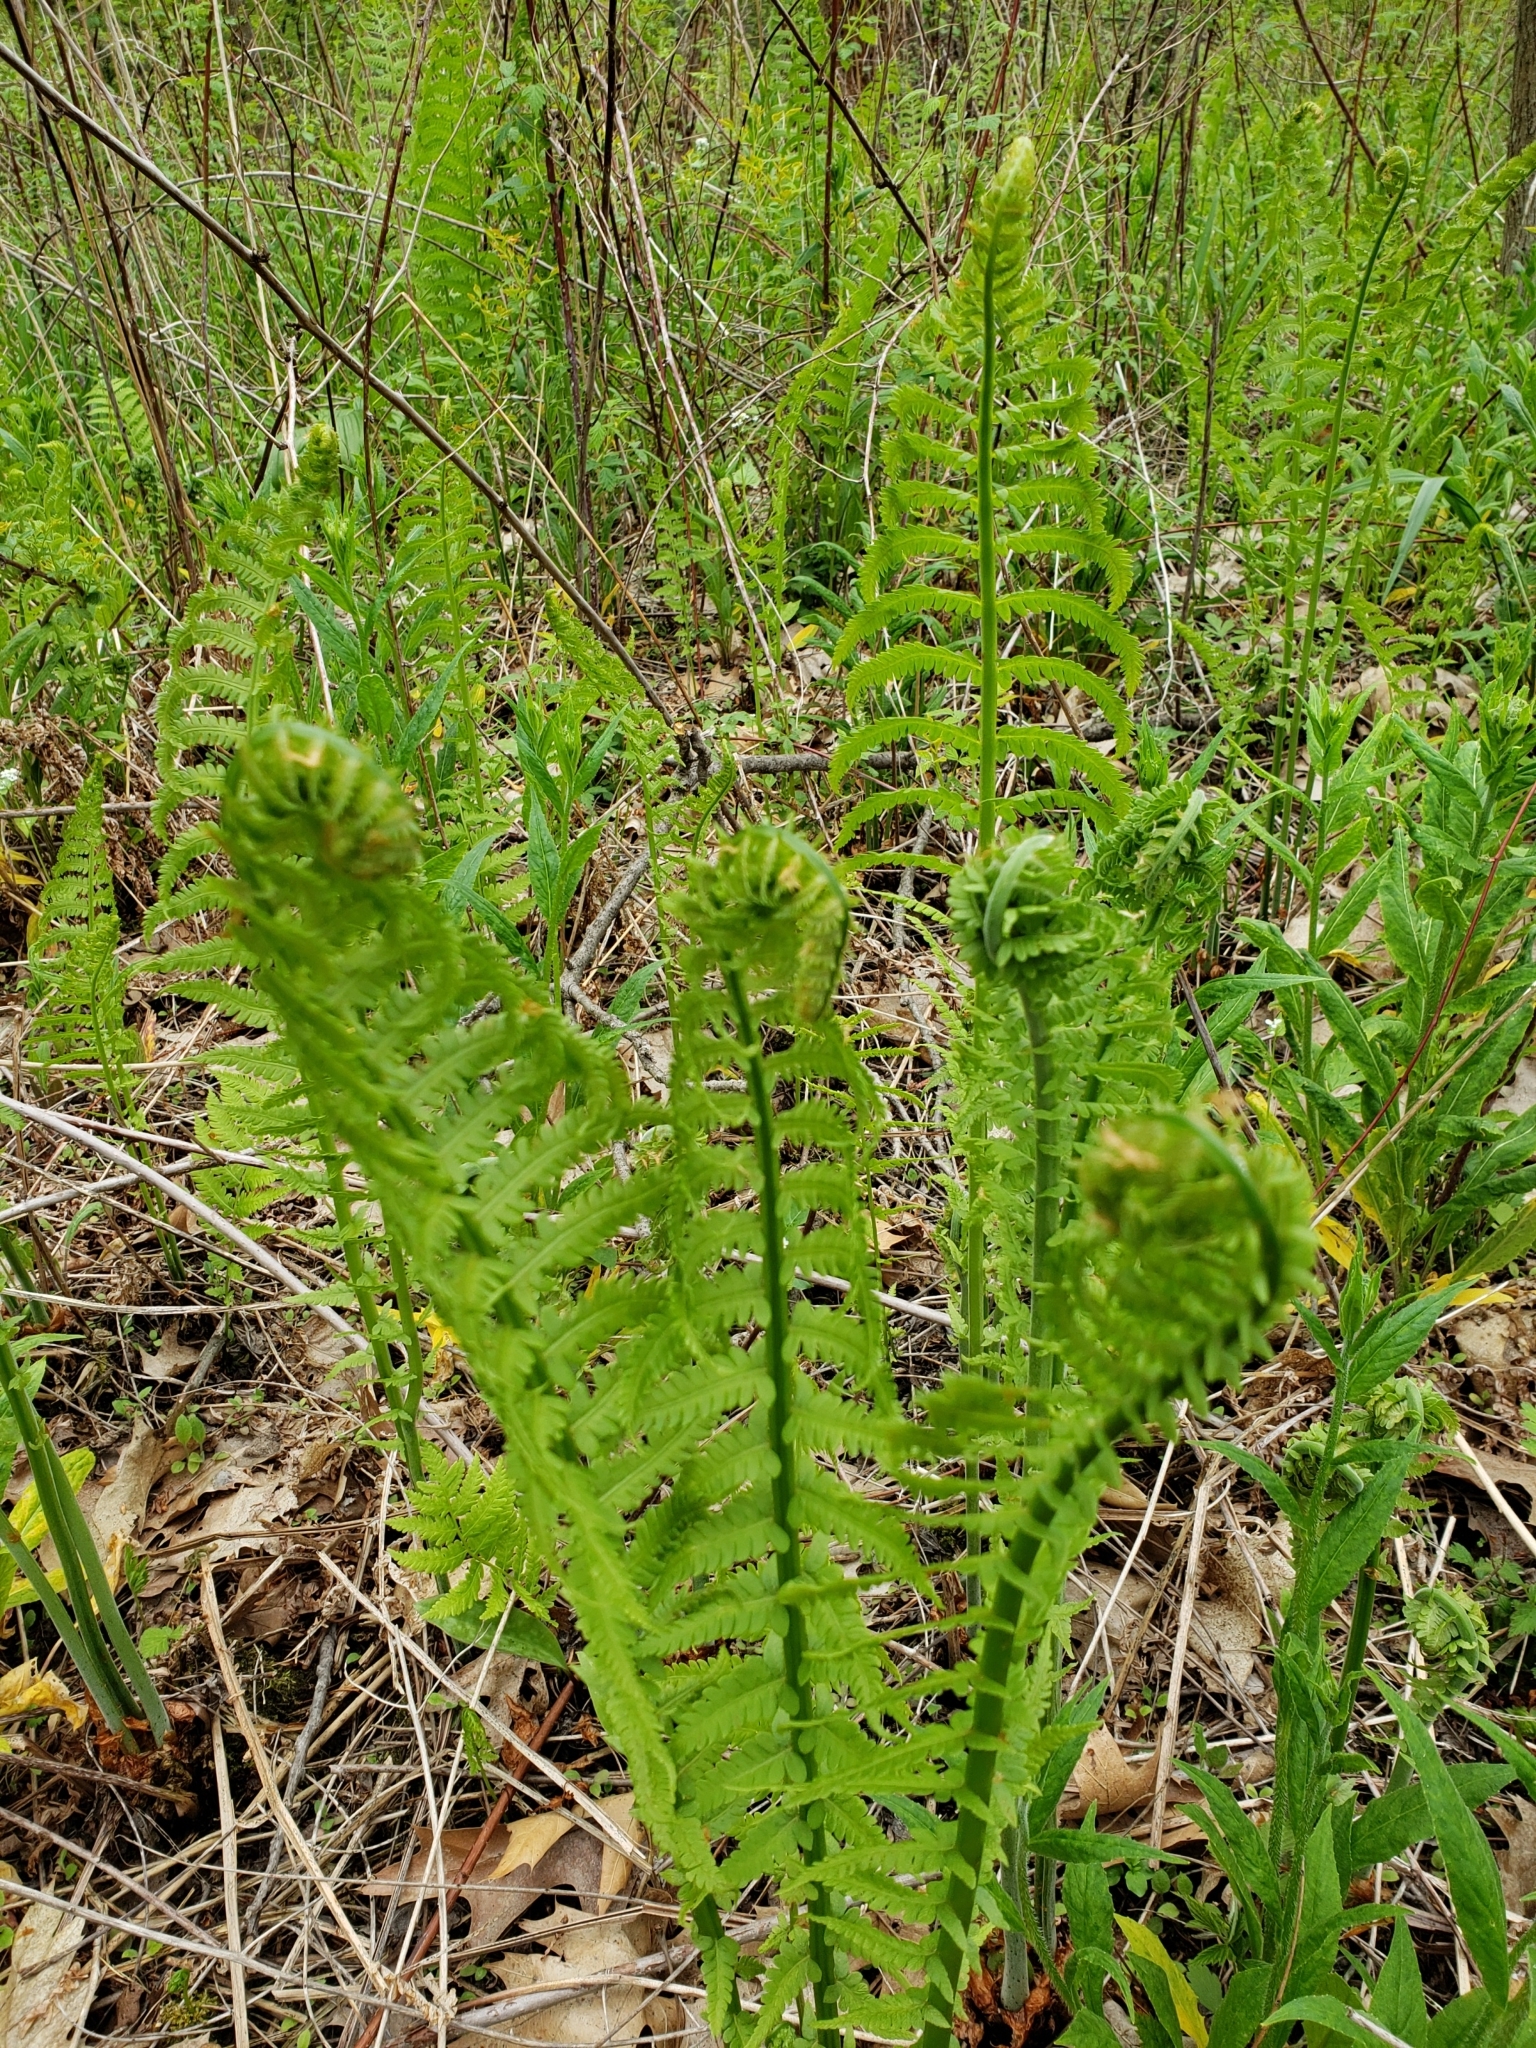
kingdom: Plantae
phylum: Tracheophyta
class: Polypodiopsida
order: Polypodiales
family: Onocleaceae
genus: Matteuccia
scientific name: Matteuccia struthiopteris
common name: Ostrich fern
